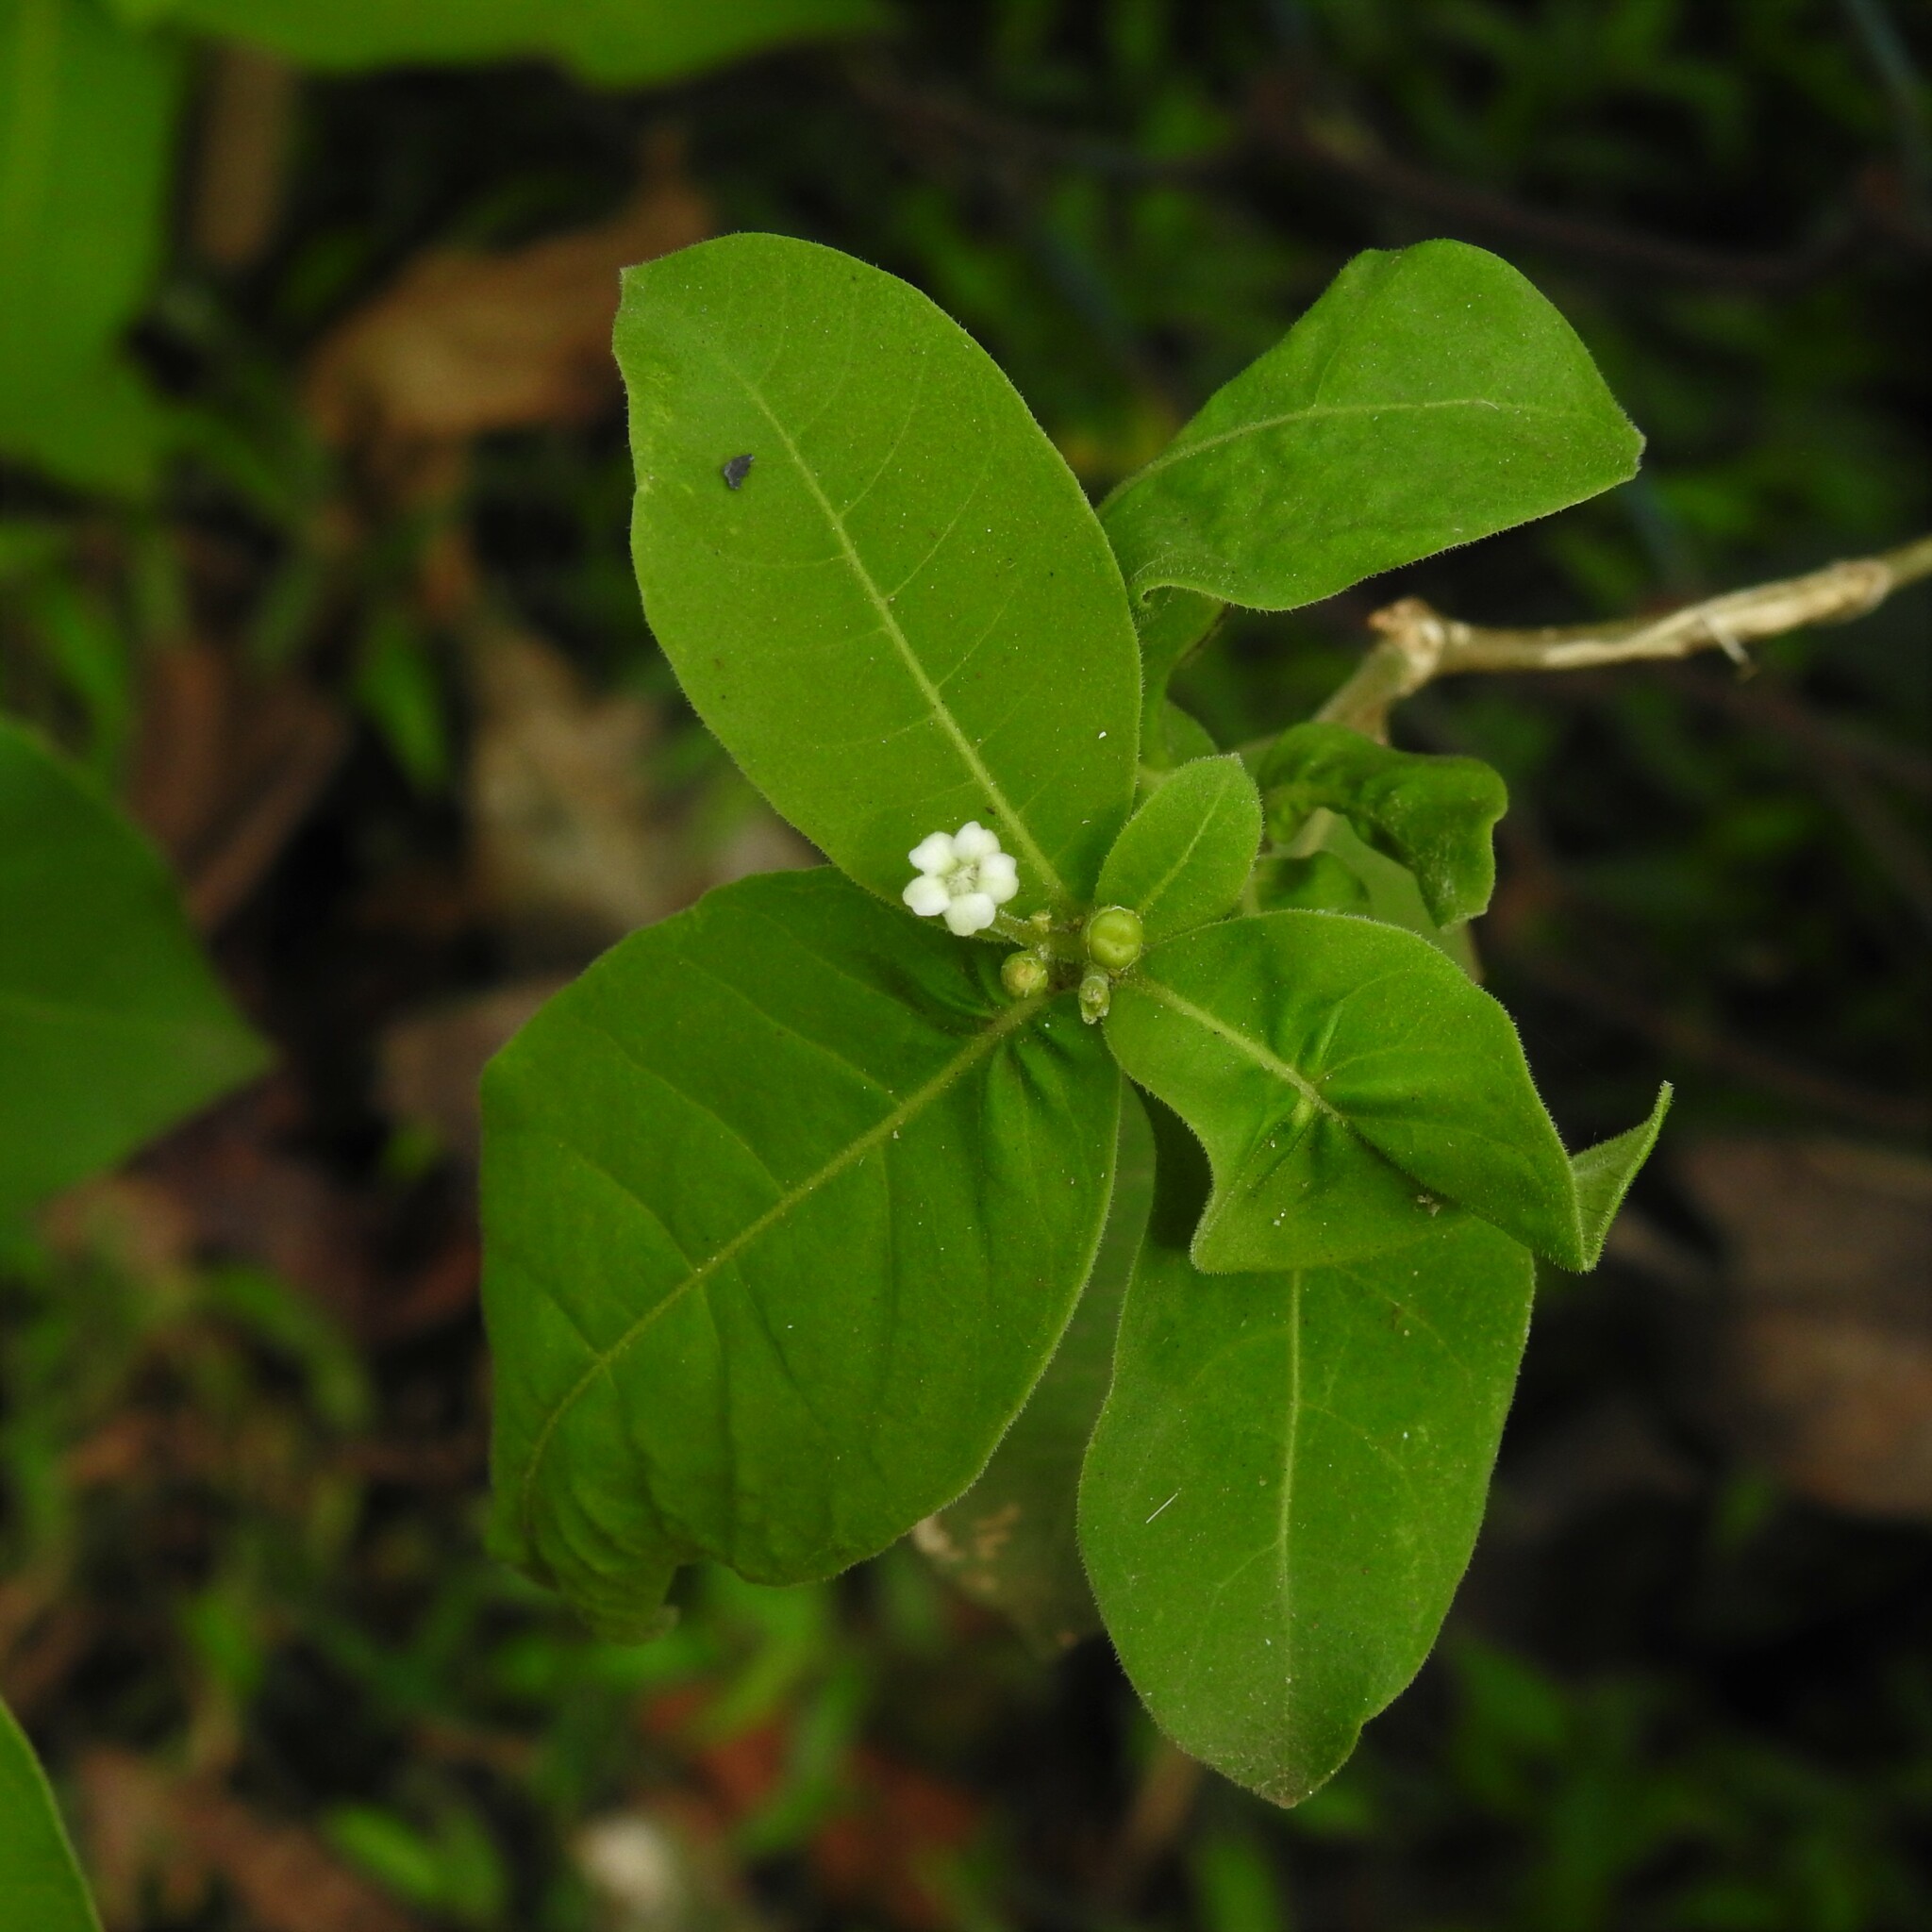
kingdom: Plantae
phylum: Tracheophyta
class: Magnoliopsida
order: Gentianales
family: Apocynaceae
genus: Rauvolfia
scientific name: Rauvolfia tetraphylla
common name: Four-leaf devil-pepper
